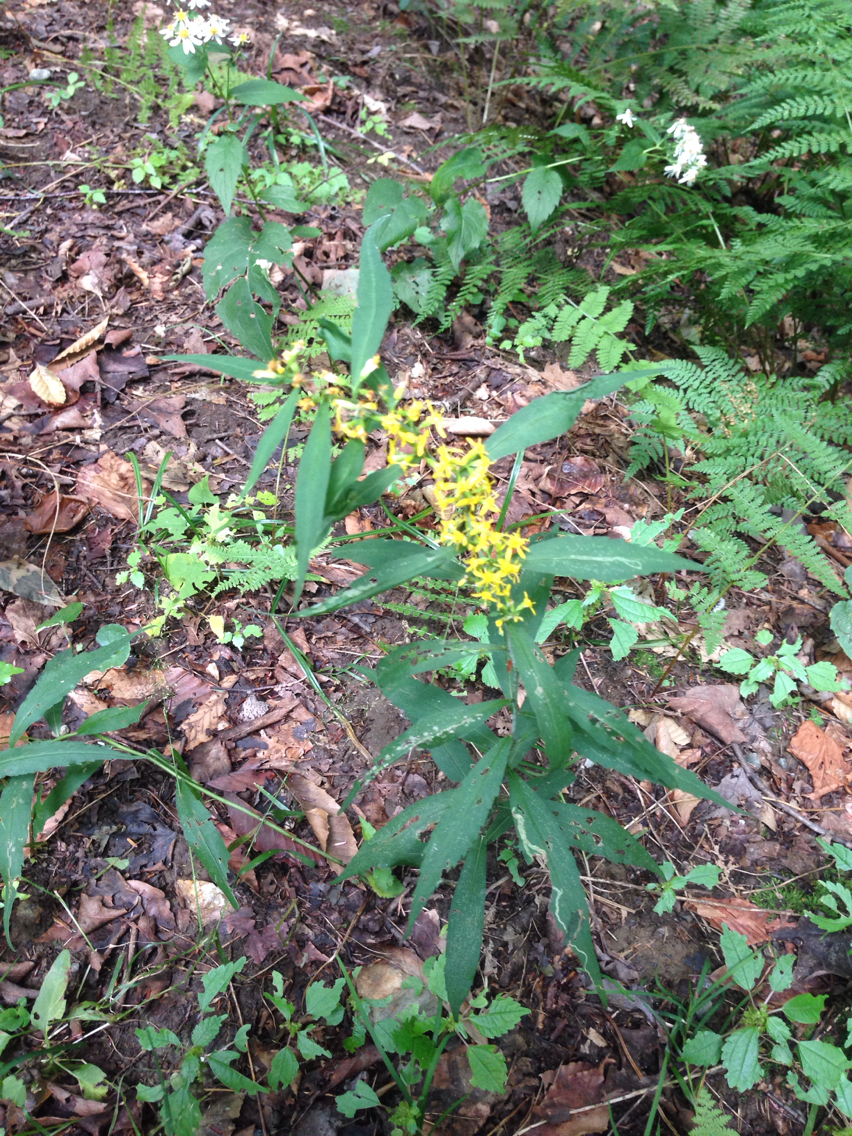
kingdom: Plantae
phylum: Tracheophyta
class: Magnoliopsida
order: Asterales
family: Asteraceae
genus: Solidago
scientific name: Solidago caesia
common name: Woodland goldenrod
